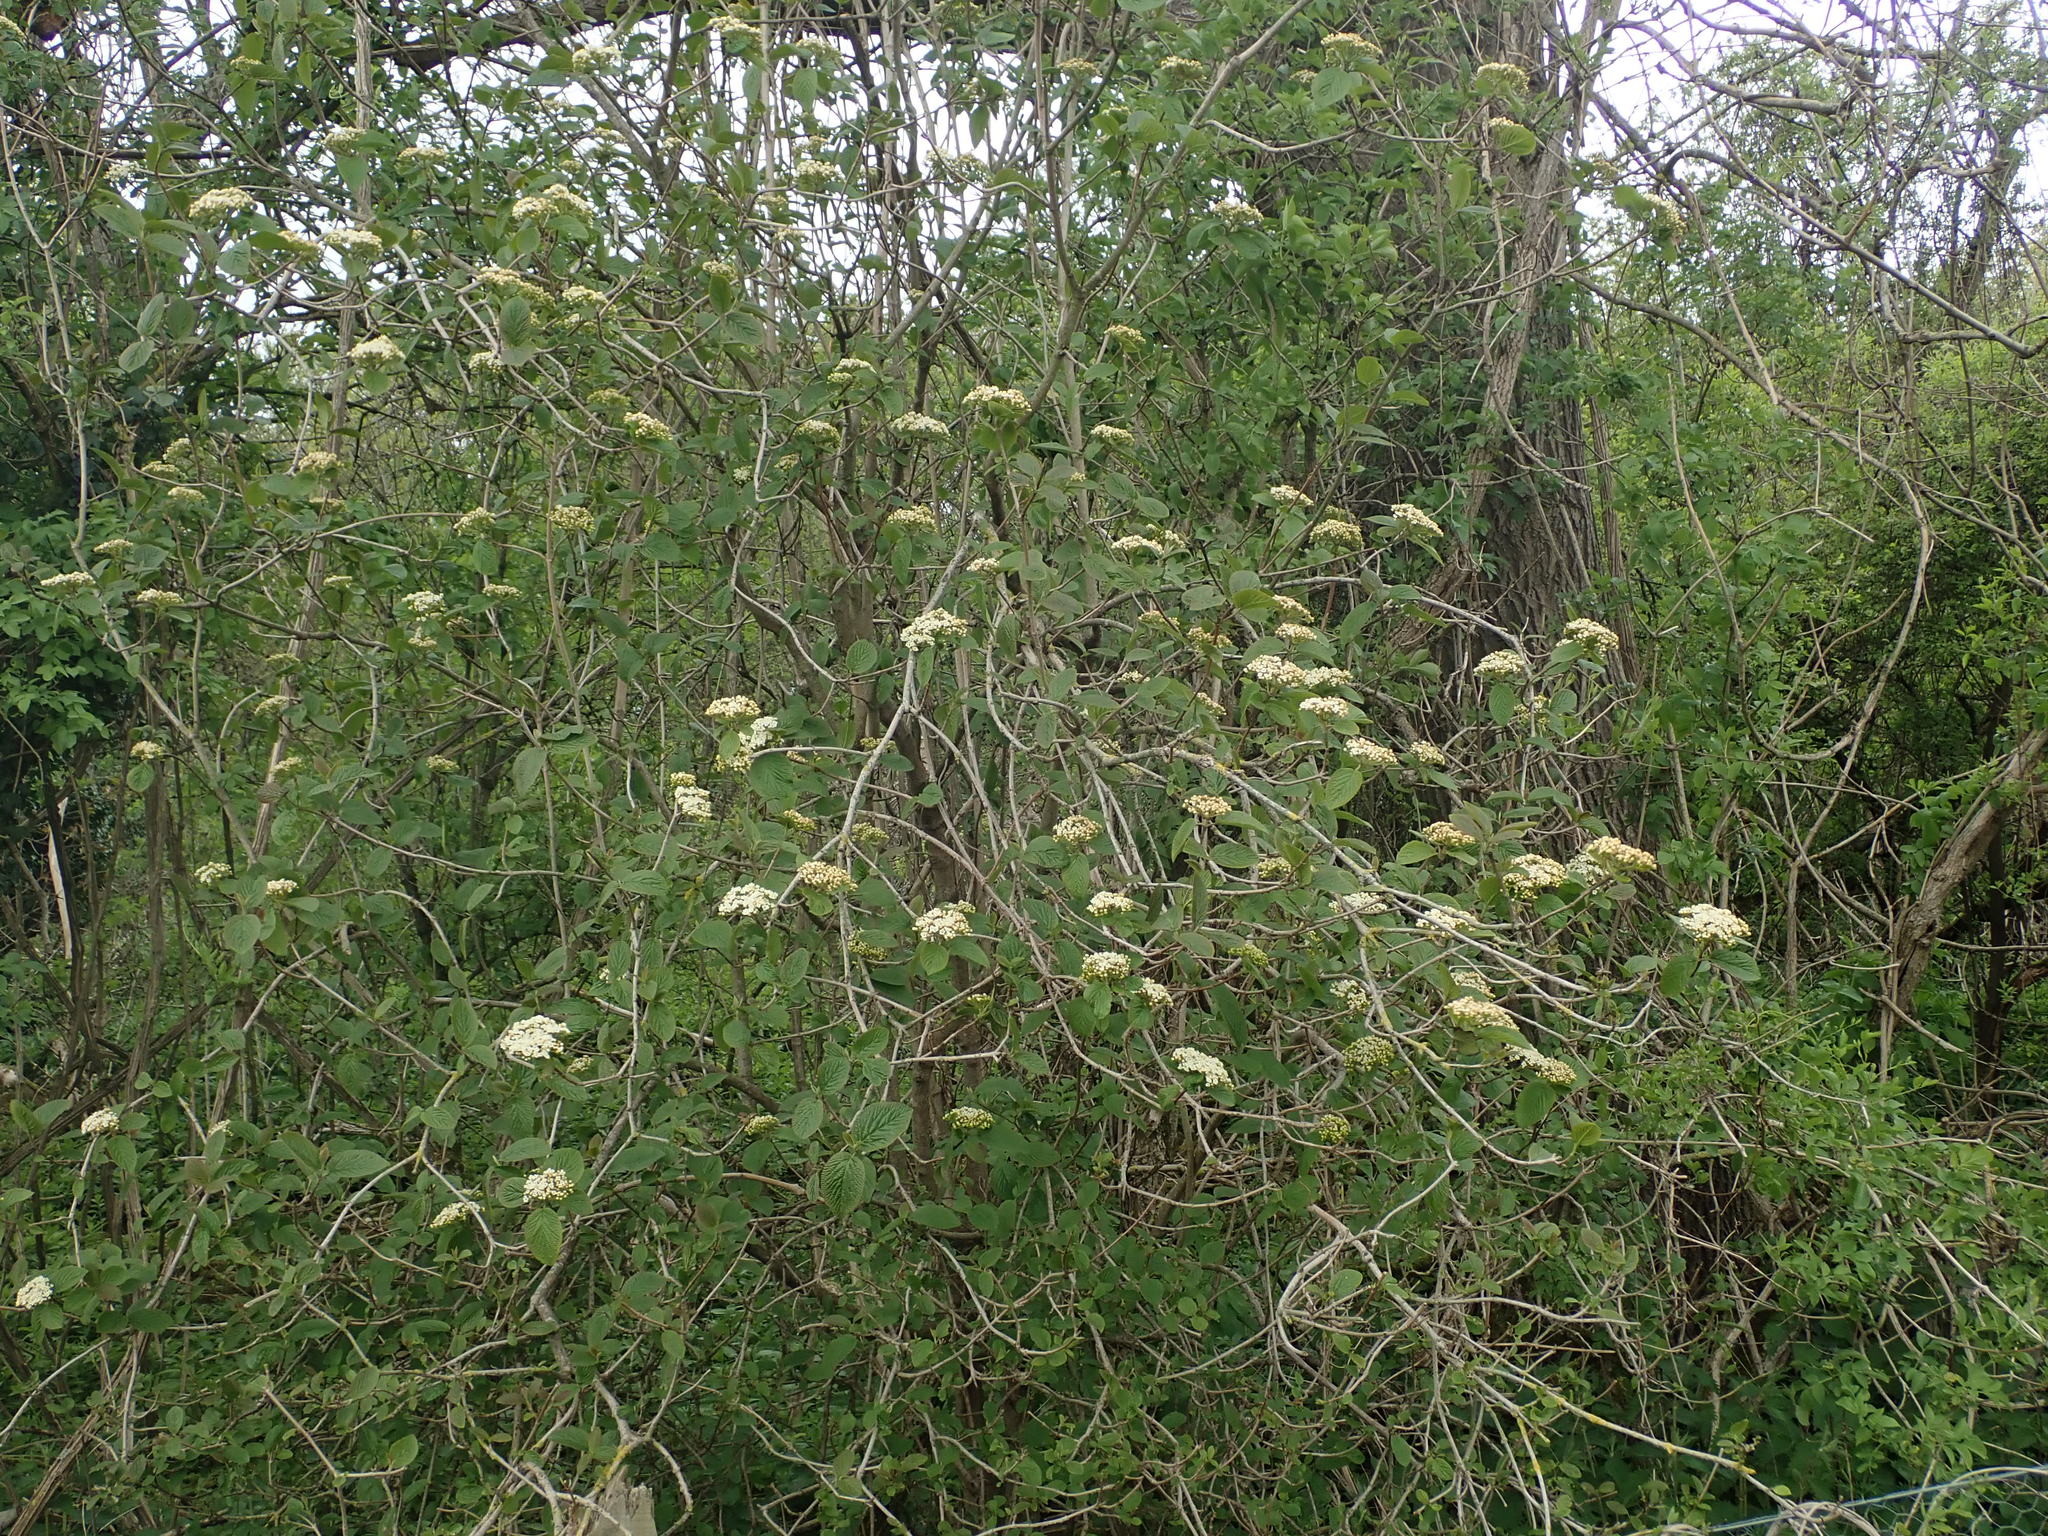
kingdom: Plantae
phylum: Tracheophyta
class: Magnoliopsida
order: Dipsacales
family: Viburnaceae
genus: Viburnum
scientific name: Viburnum lantana
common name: Wayfaring tree
